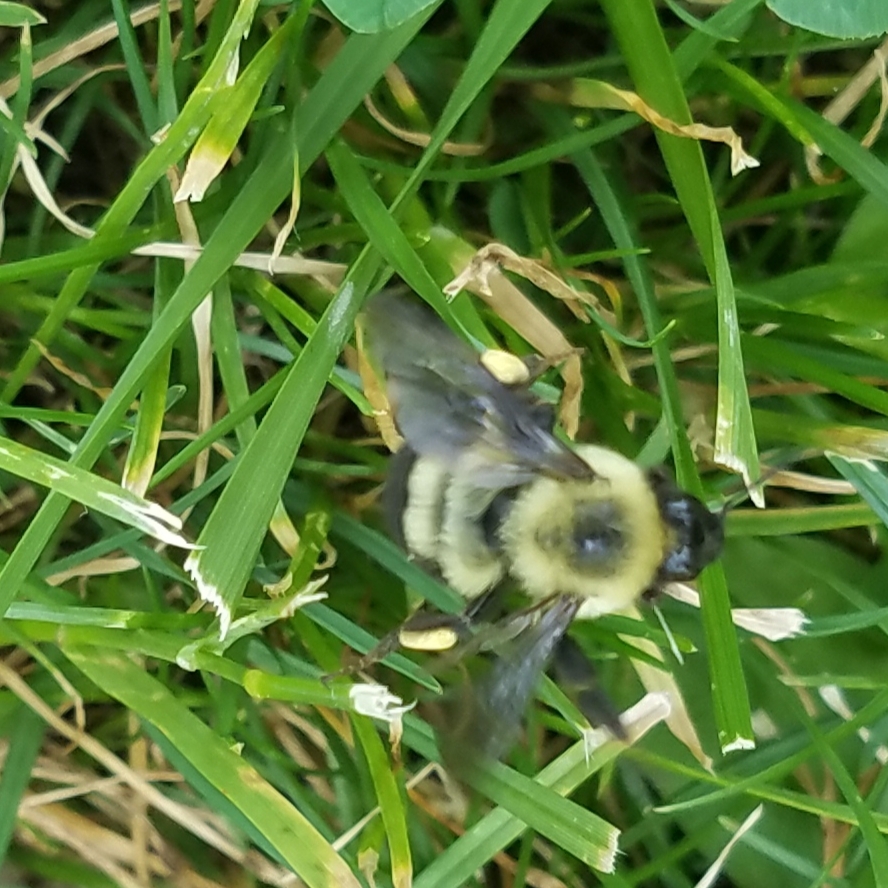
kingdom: Animalia
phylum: Arthropoda
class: Insecta
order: Hymenoptera
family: Apidae
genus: Bombus
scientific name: Bombus bimaculatus
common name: Two-spotted bumble bee
